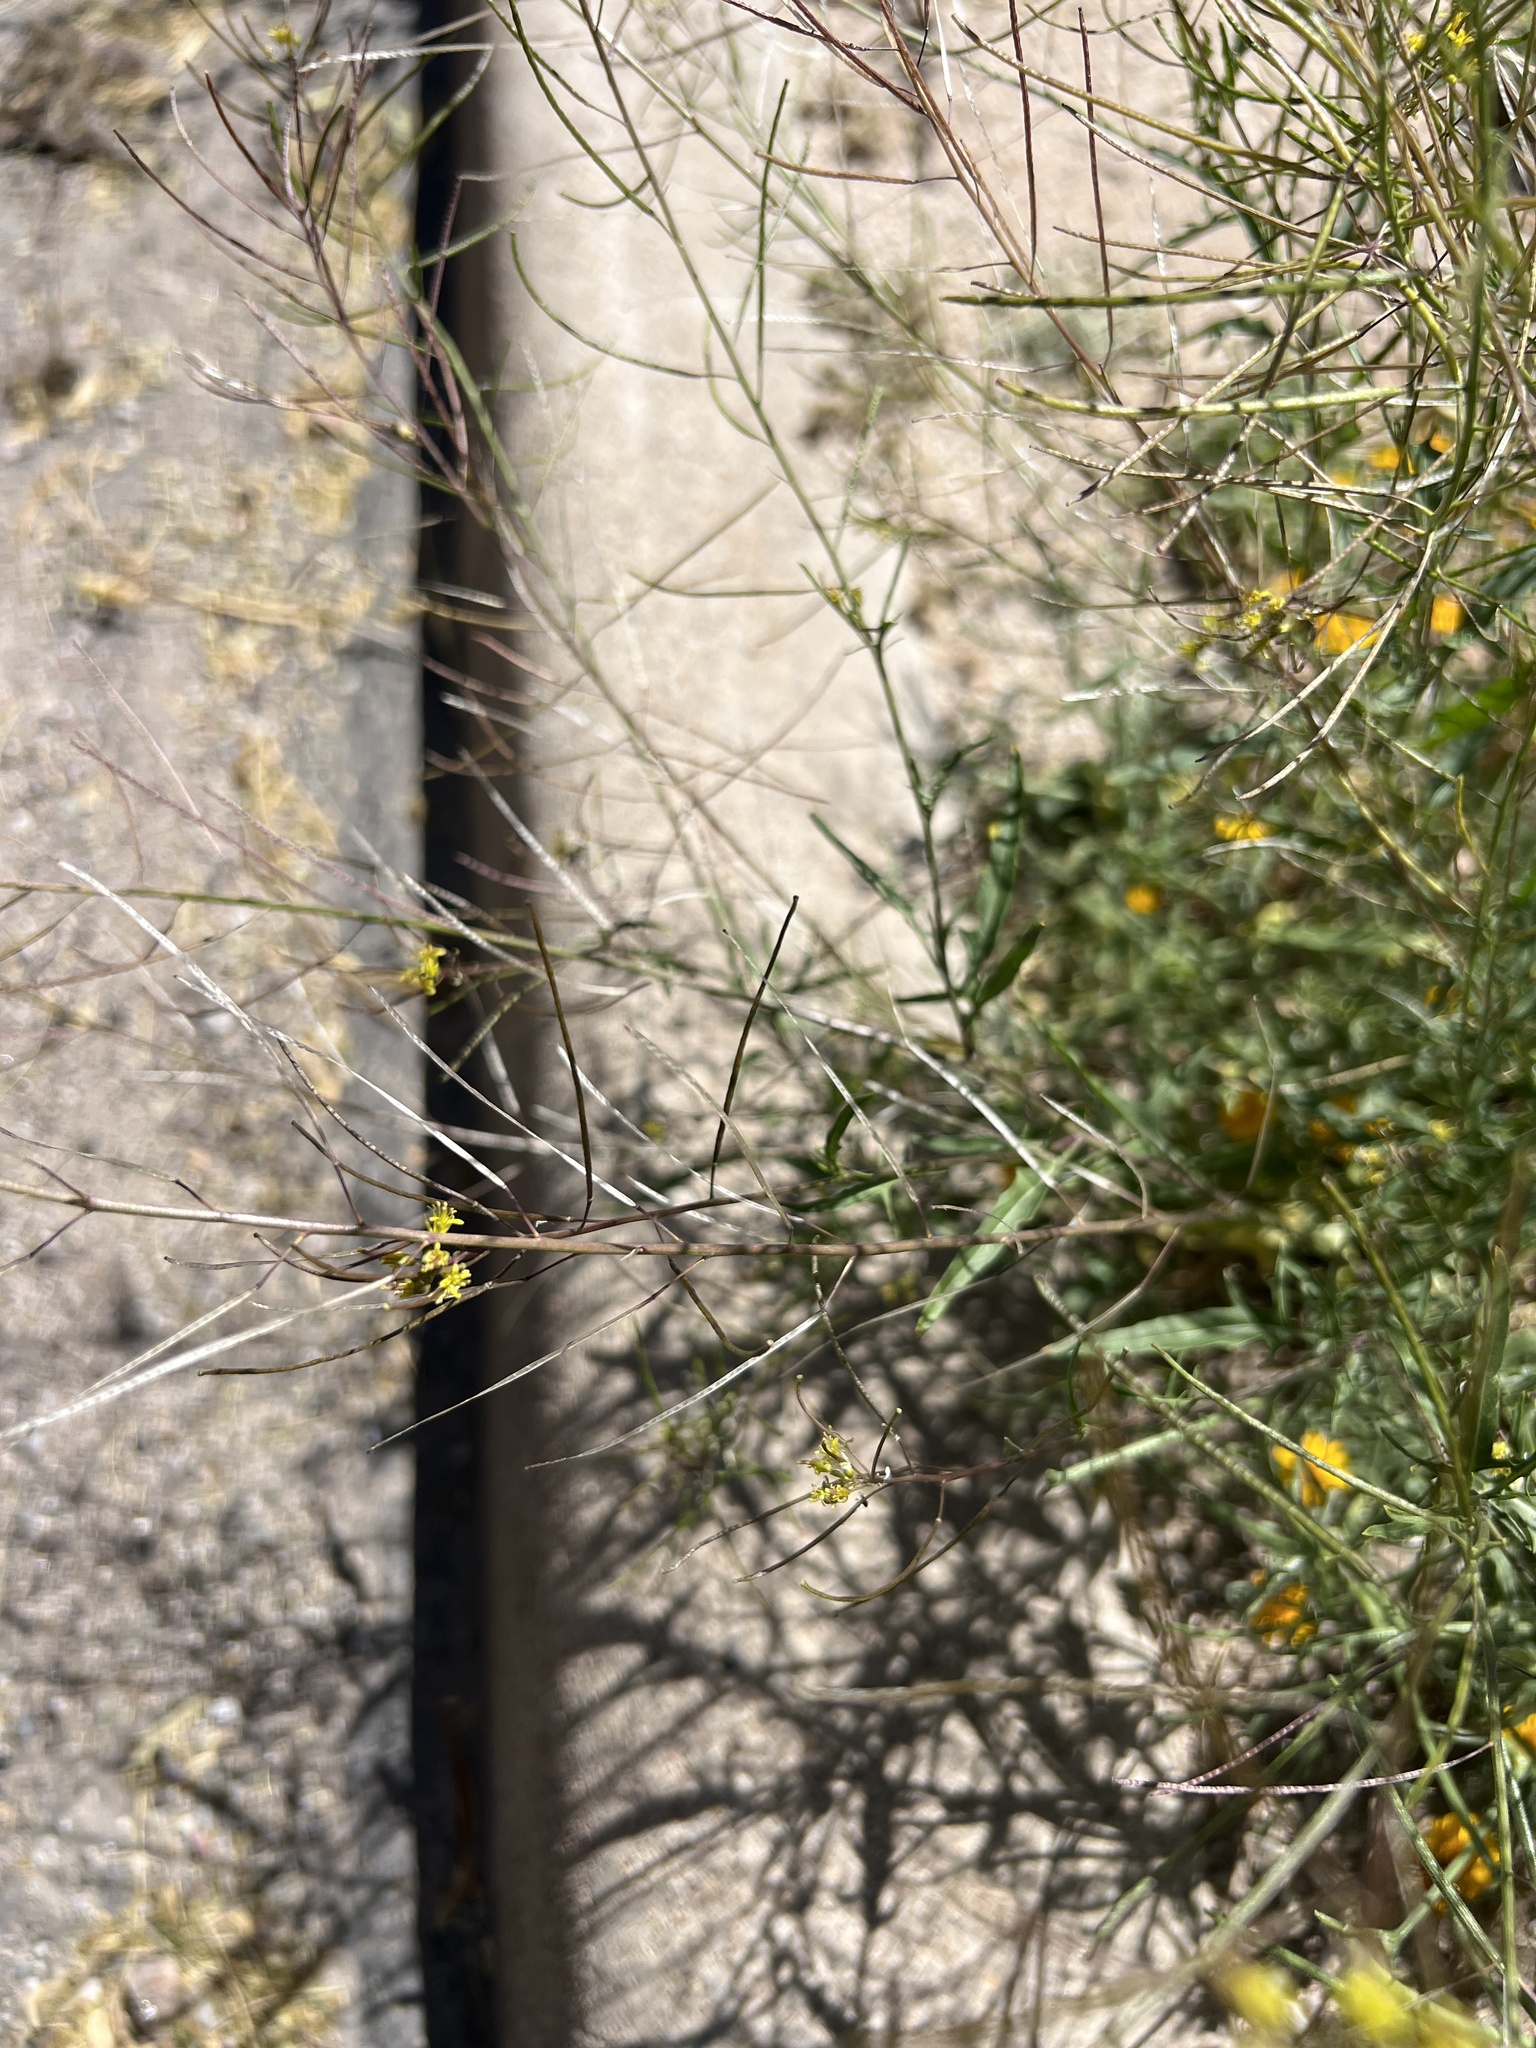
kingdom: Plantae
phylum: Tracheophyta
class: Magnoliopsida
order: Brassicales
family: Brassicaceae
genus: Sisymbrium
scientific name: Sisymbrium irio
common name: London rocket
